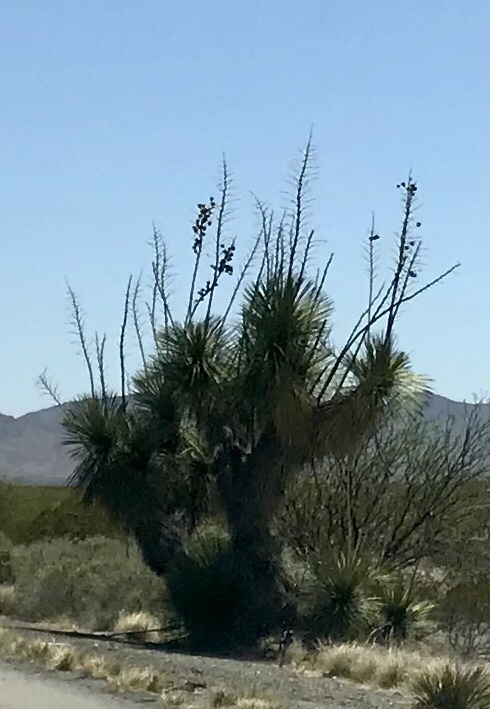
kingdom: Plantae
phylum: Tracheophyta
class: Liliopsida
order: Asparagales
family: Asparagaceae
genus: Yucca
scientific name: Yucca elata
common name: Palmella
